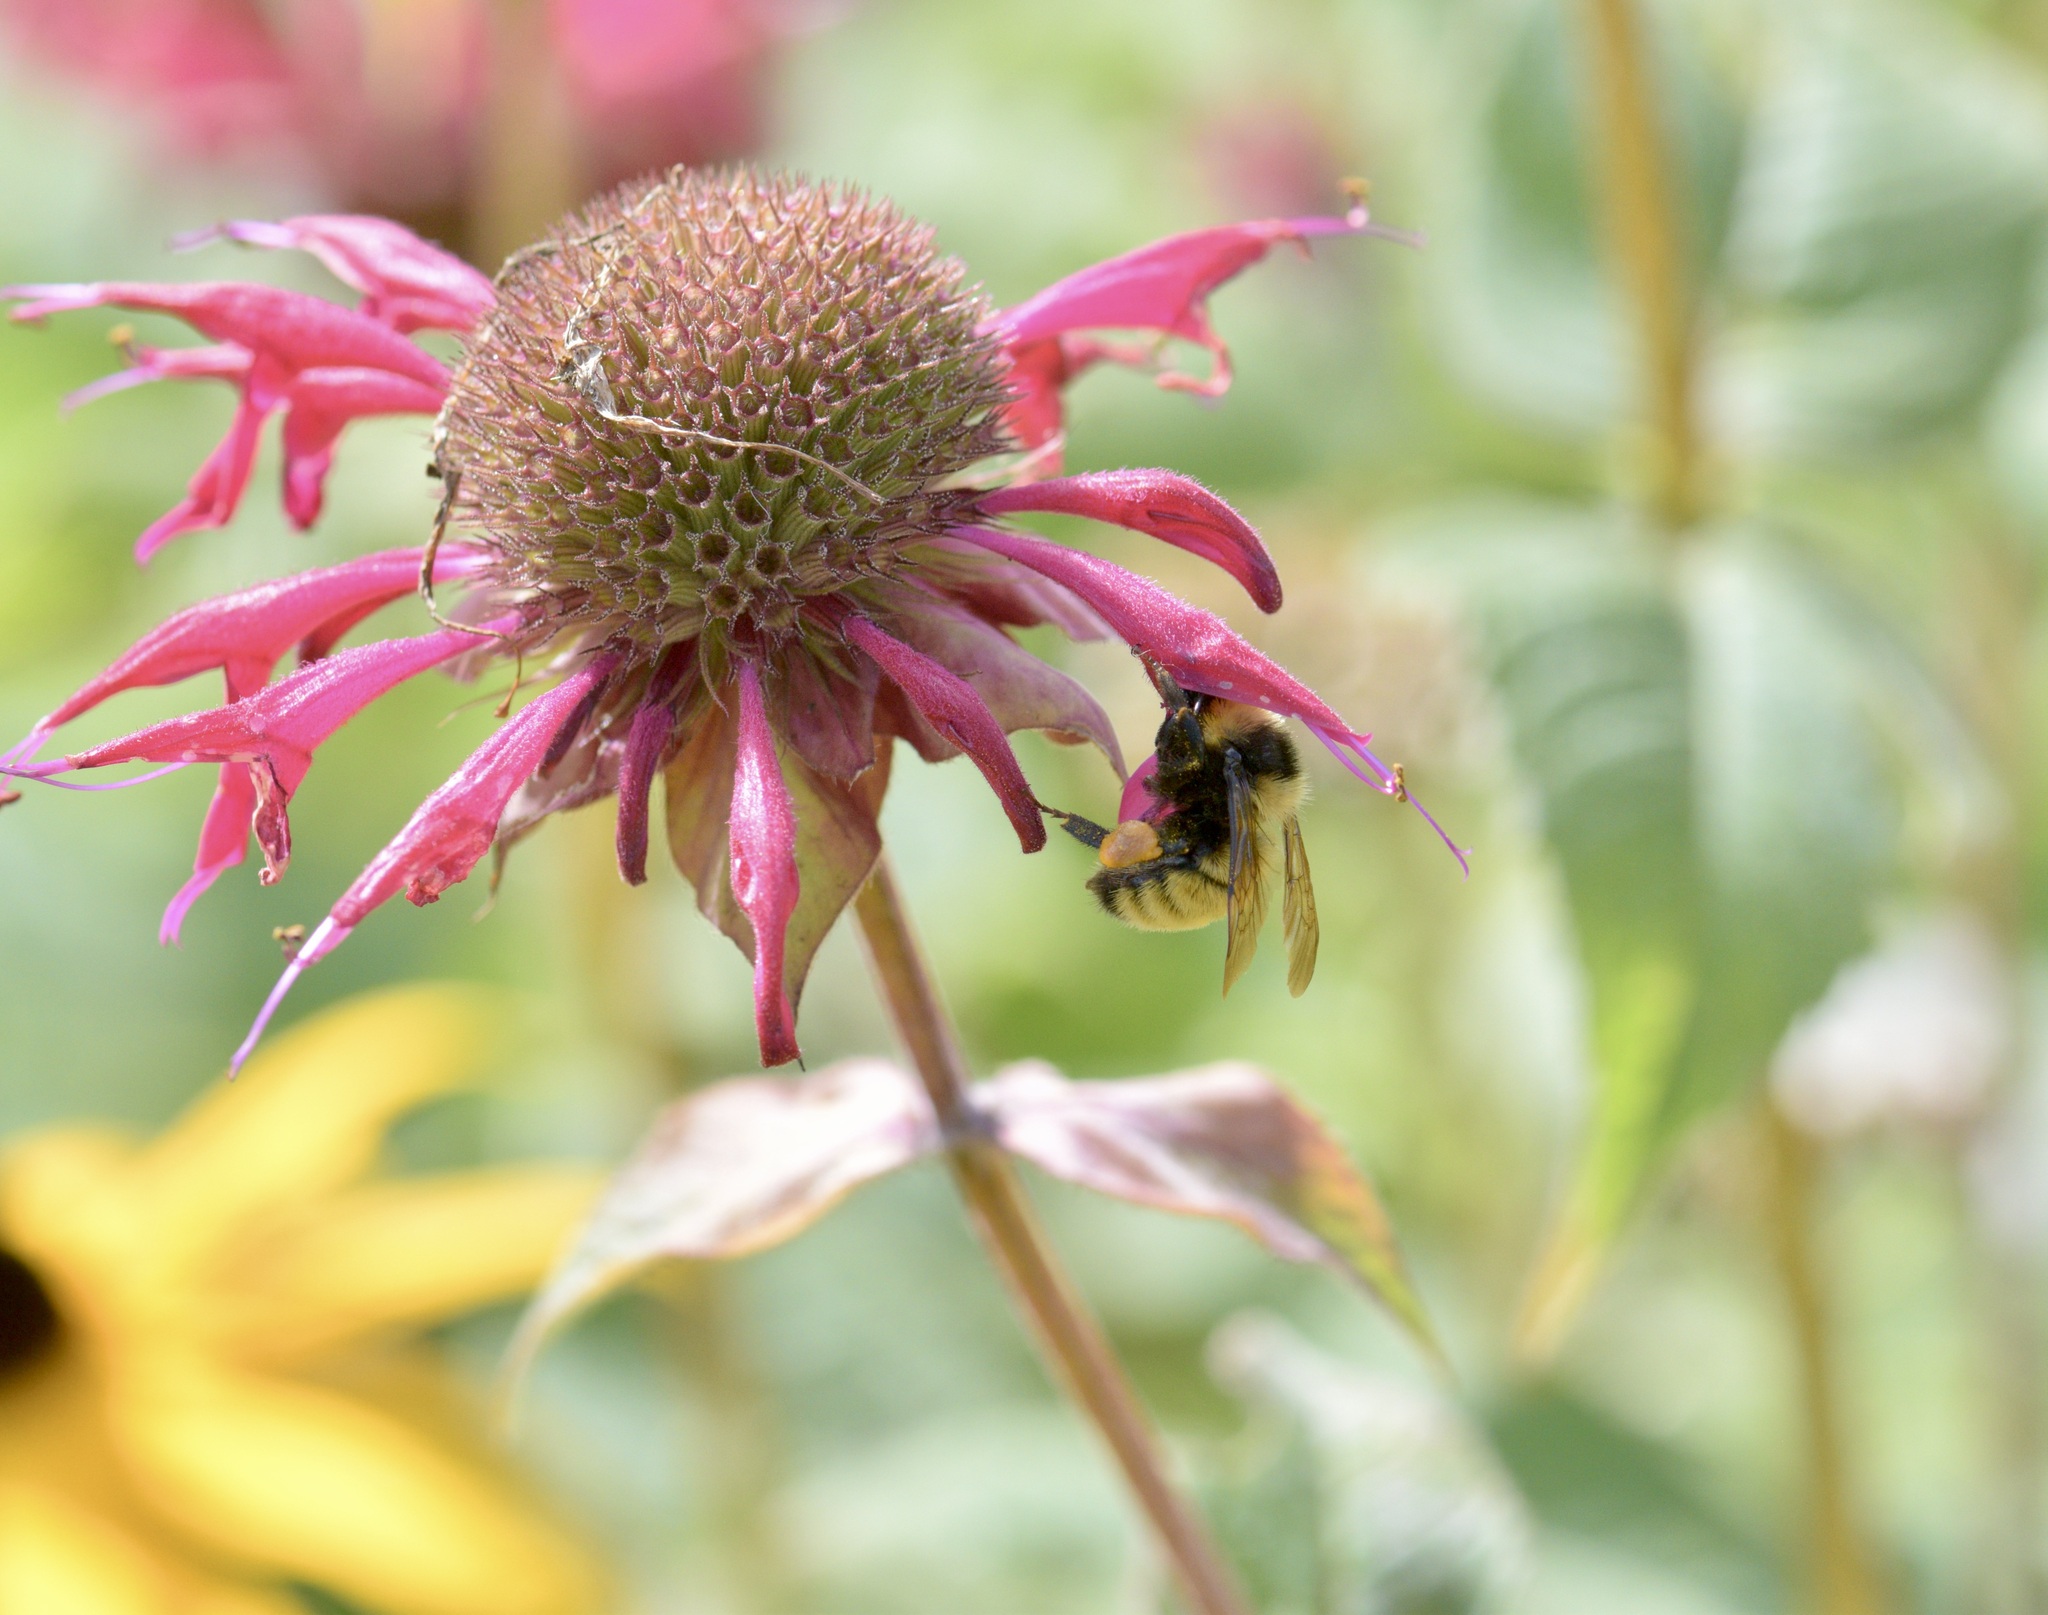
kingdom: Animalia
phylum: Arthropoda
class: Insecta
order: Hymenoptera
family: Apidae
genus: Bombus
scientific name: Bombus borealis
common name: Northern amber bumble bee
